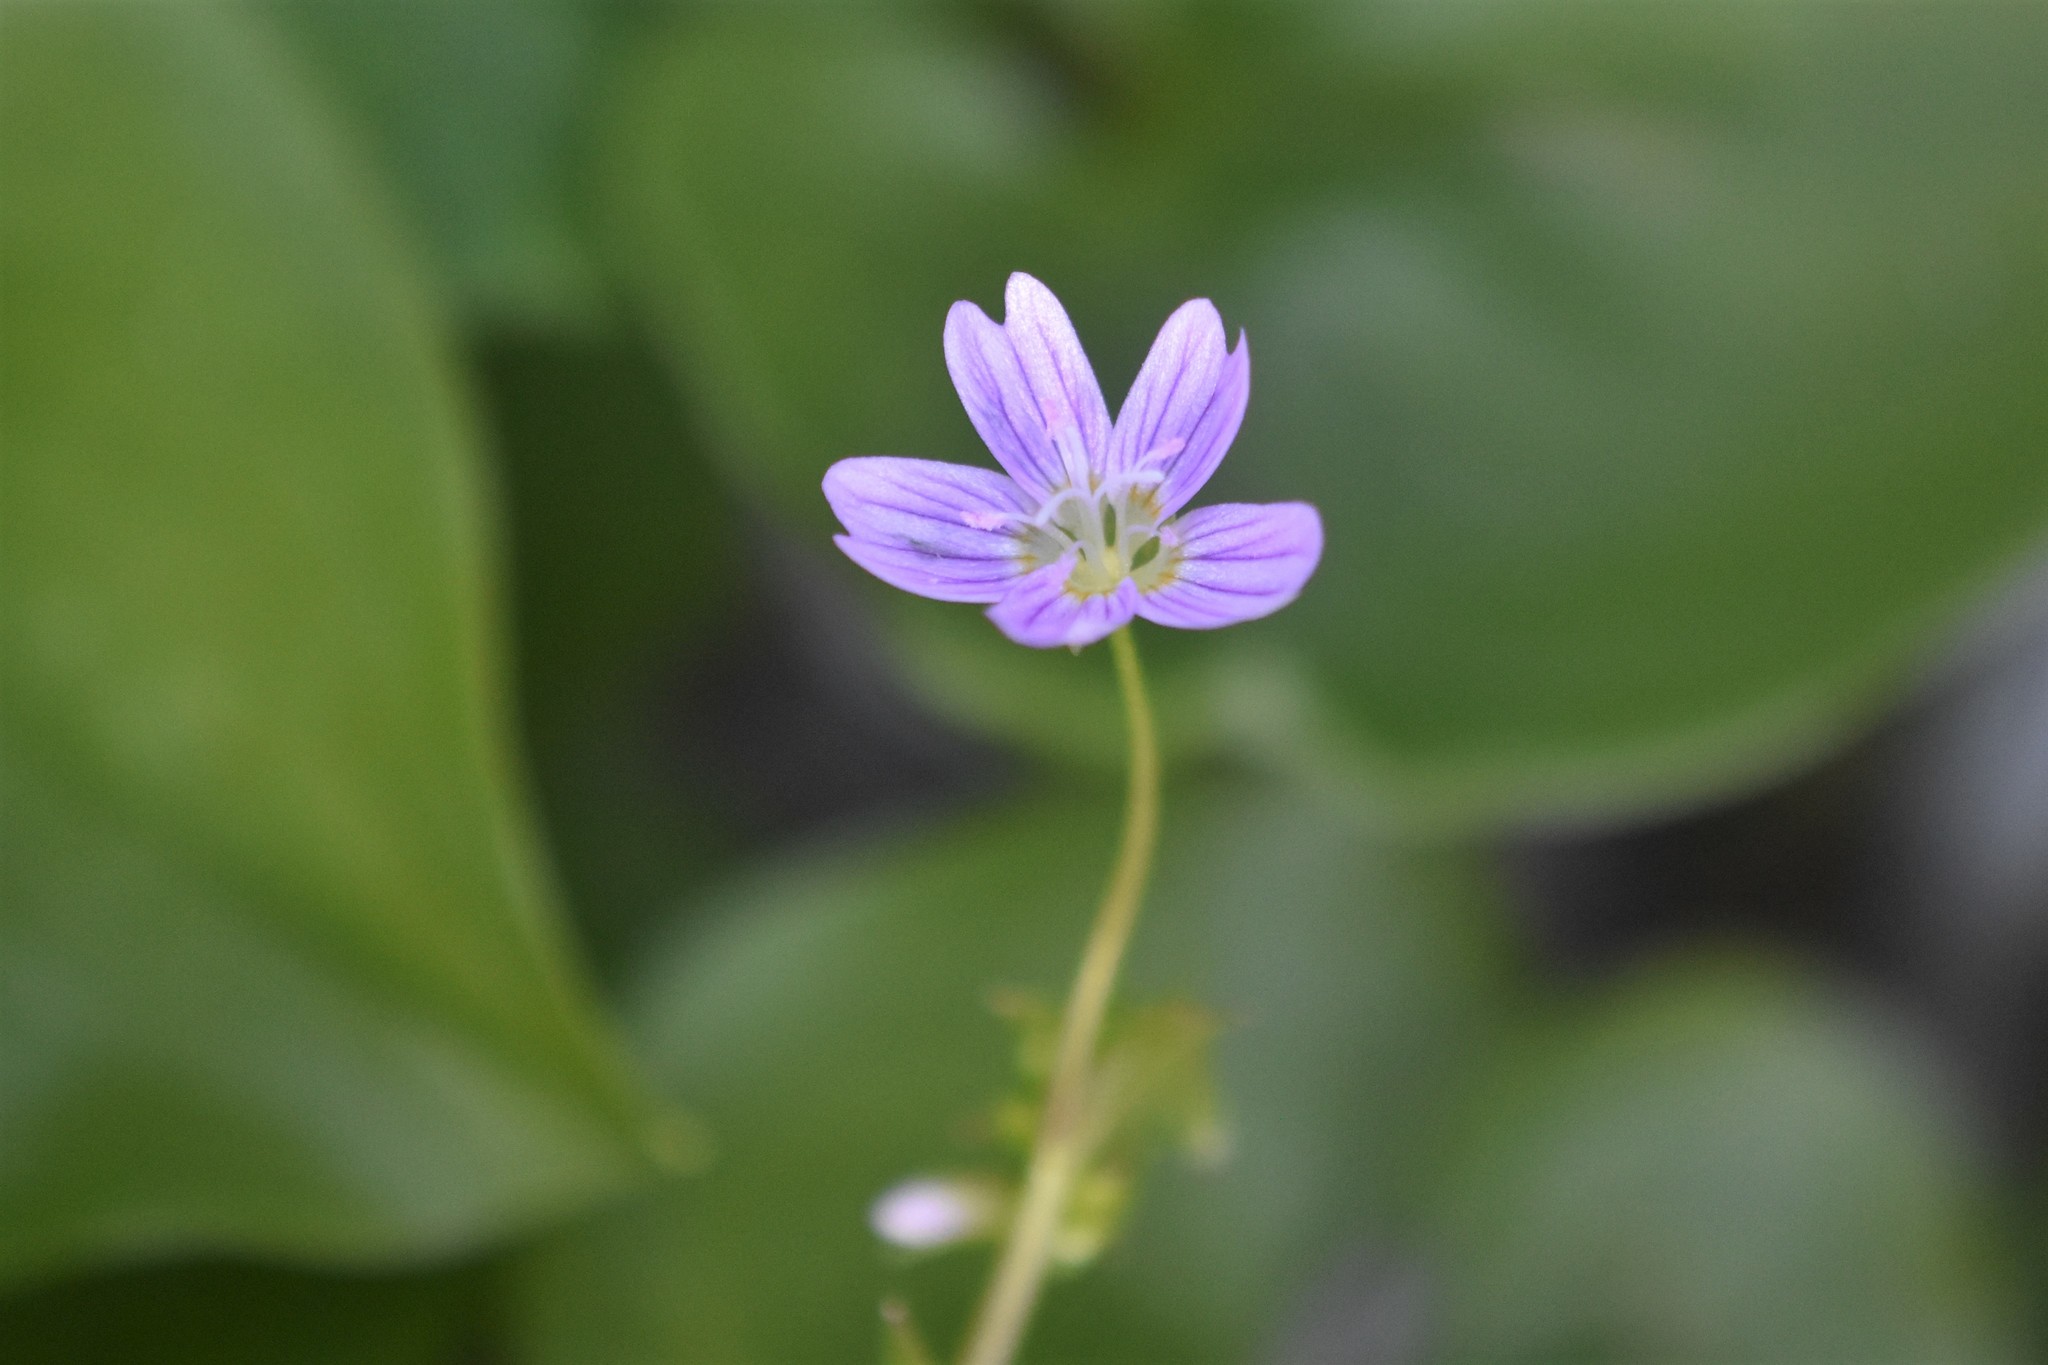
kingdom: Plantae
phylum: Tracheophyta
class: Magnoliopsida
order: Caryophyllales
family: Montiaceae
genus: Claytonia
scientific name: Claytonia sibirica
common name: Pink purslane
